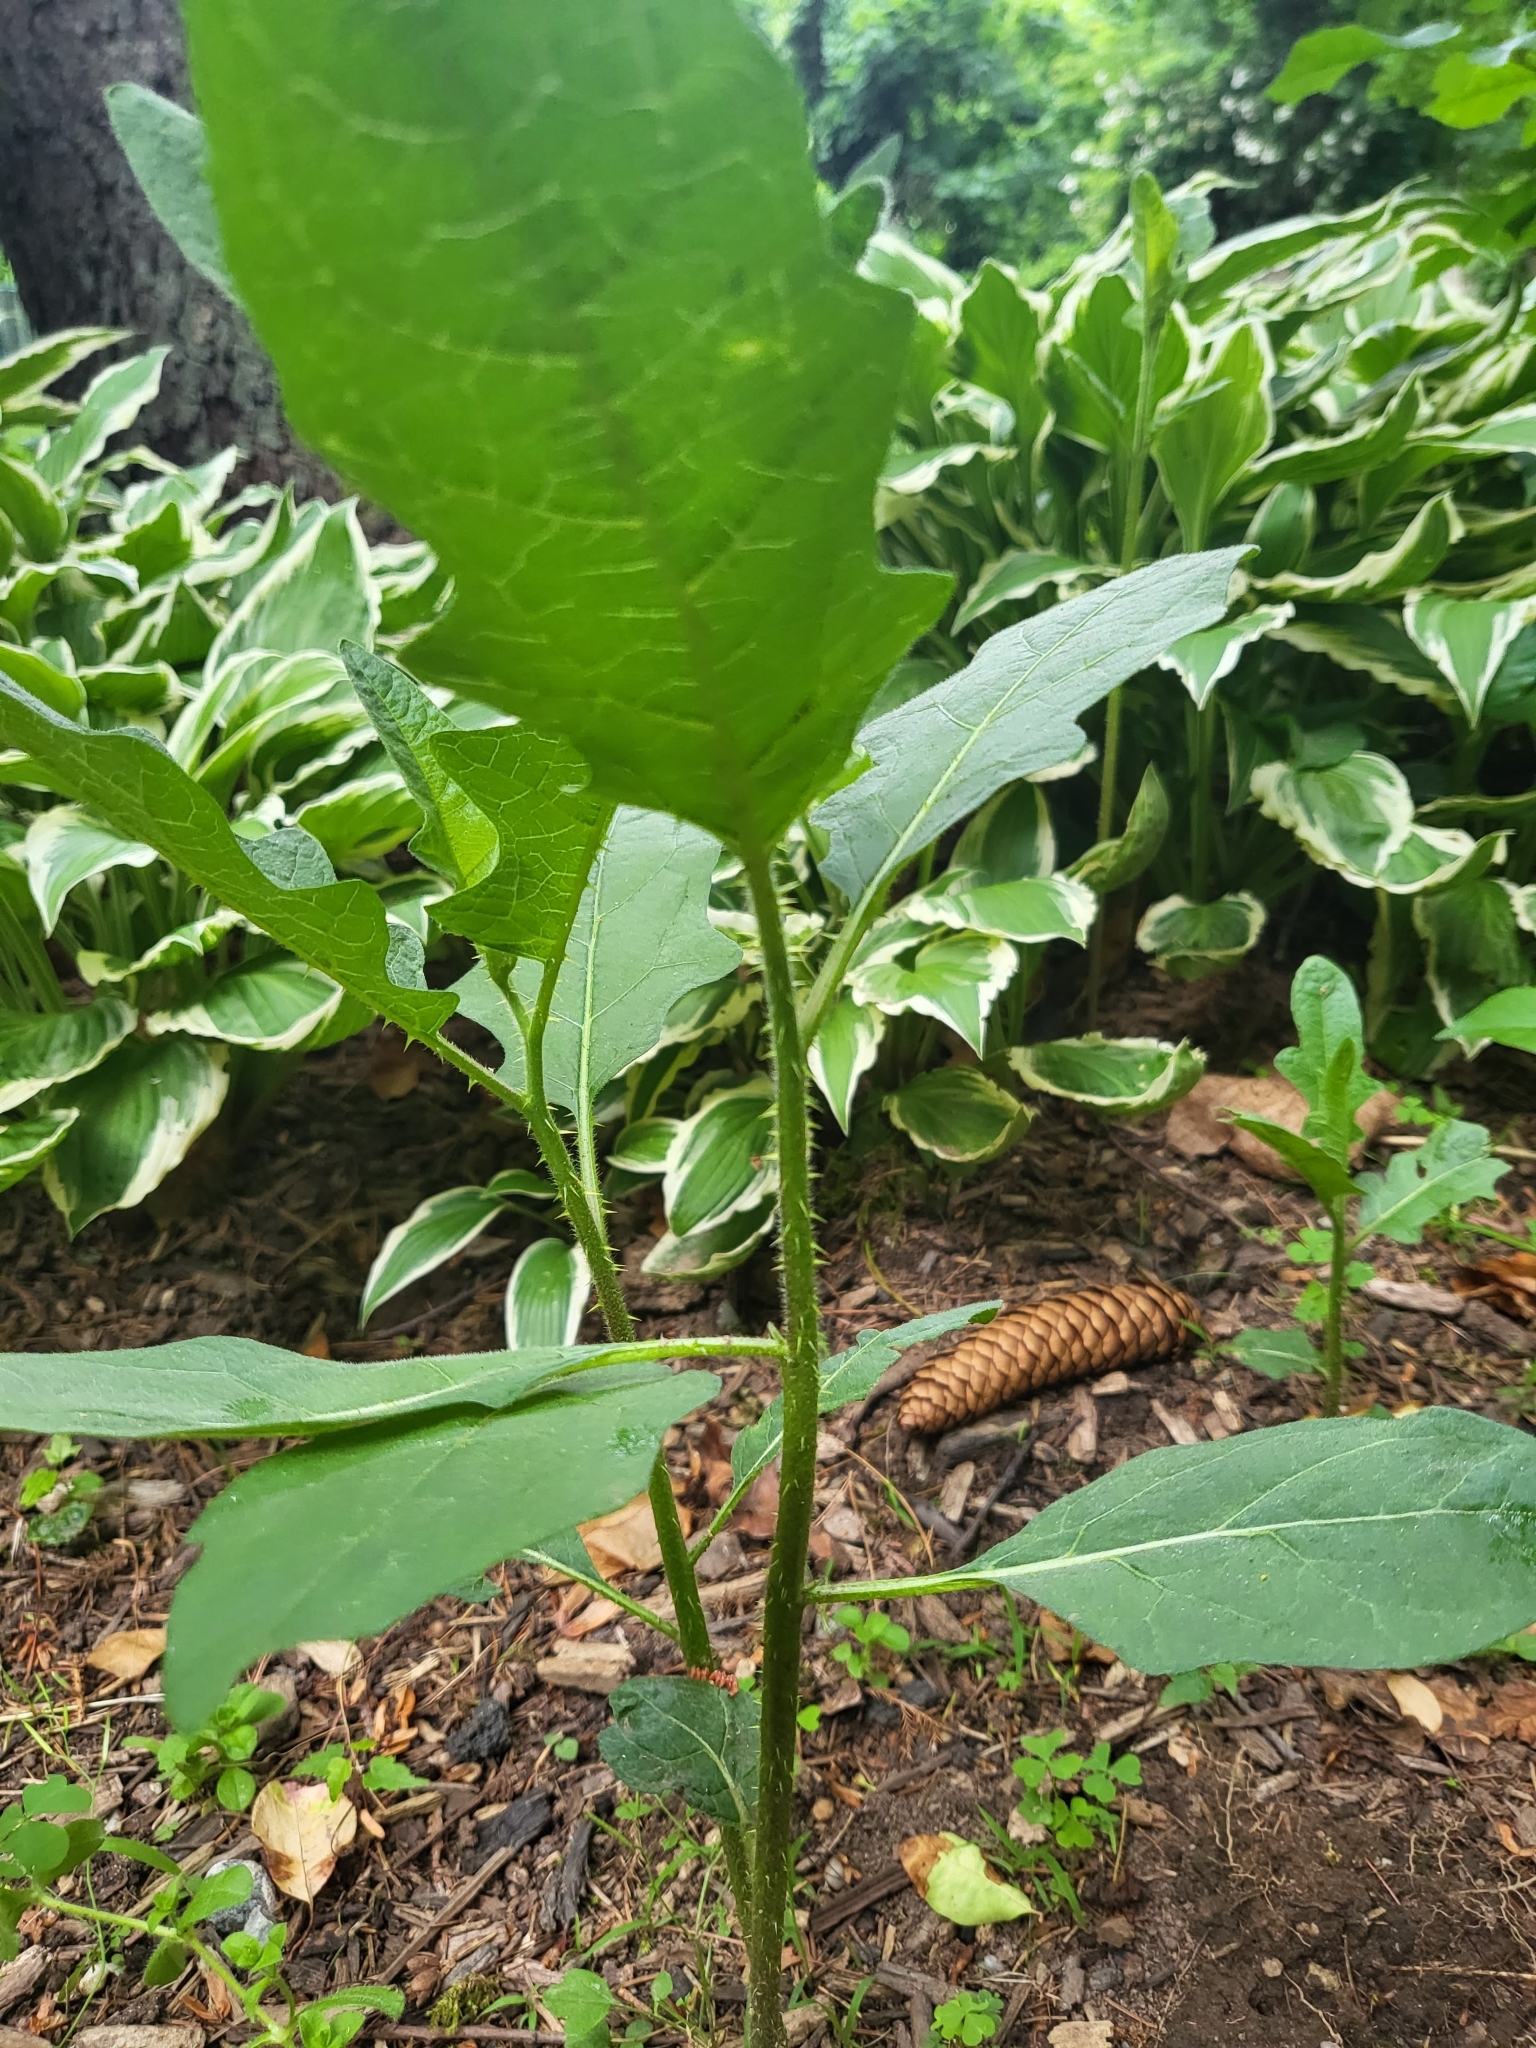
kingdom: Plantae
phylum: Tracheophyta
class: Magnoliopsida
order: Solanales
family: Solanaceae
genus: Solanum
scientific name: Solanum carolinense
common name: Horse-nettle
